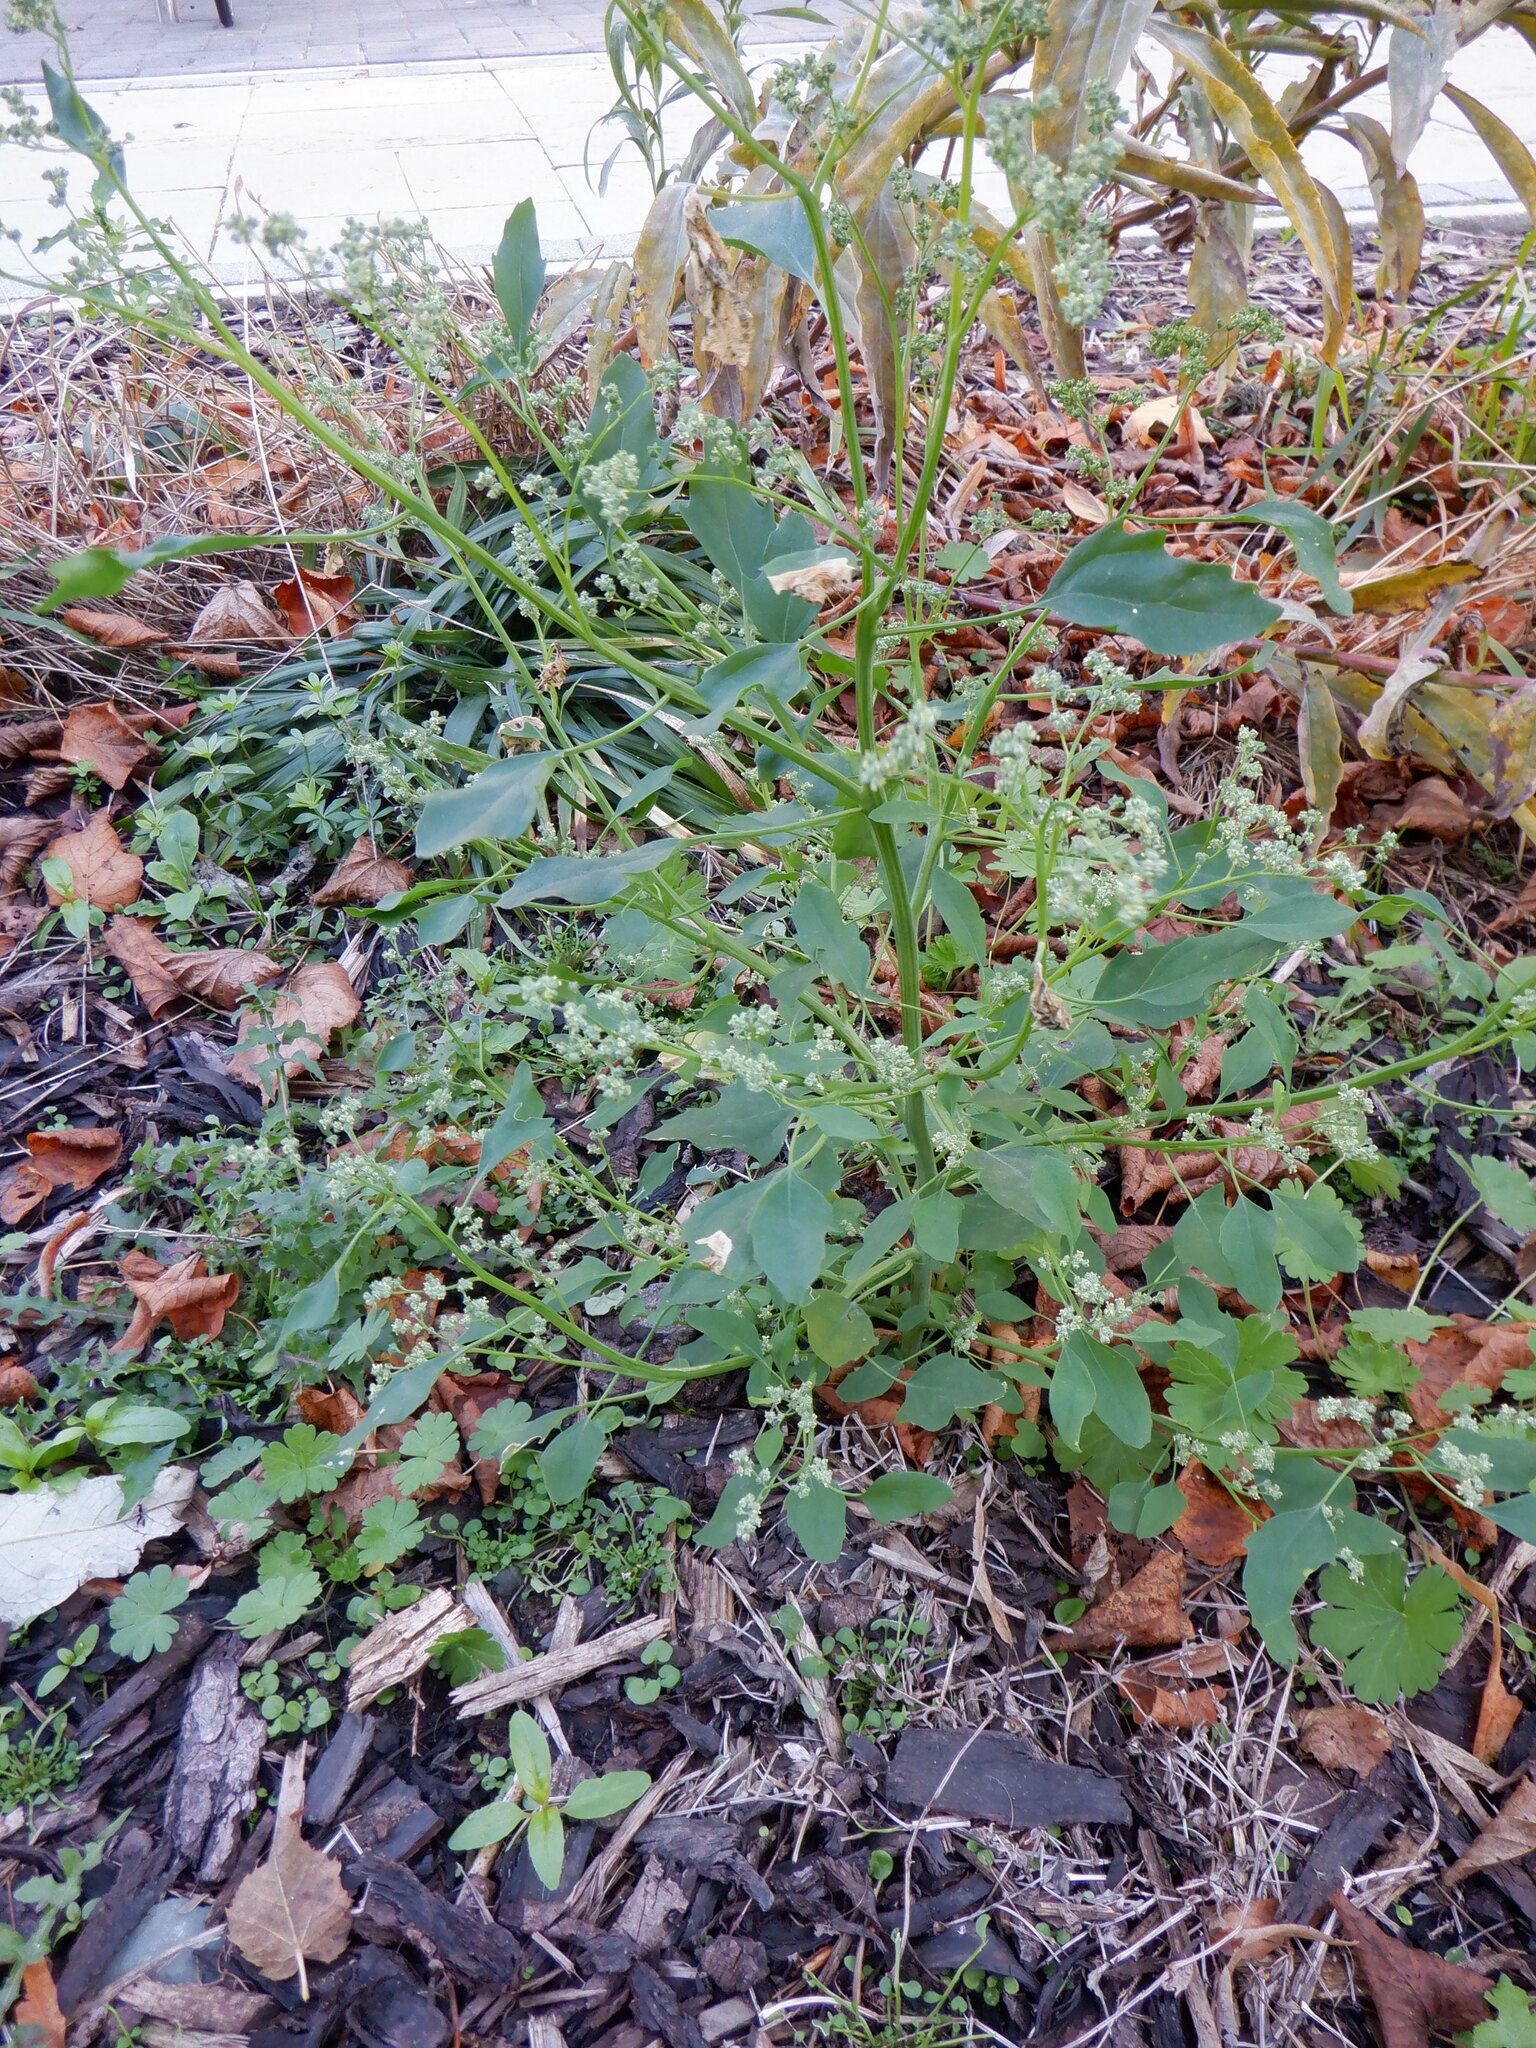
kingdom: Plantae
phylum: Tracheophyta
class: Magnoliopsida
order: Caryophyllales
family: Amaranthaceae
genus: Chenopodium
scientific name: Chenopodium album
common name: Fat-hen
